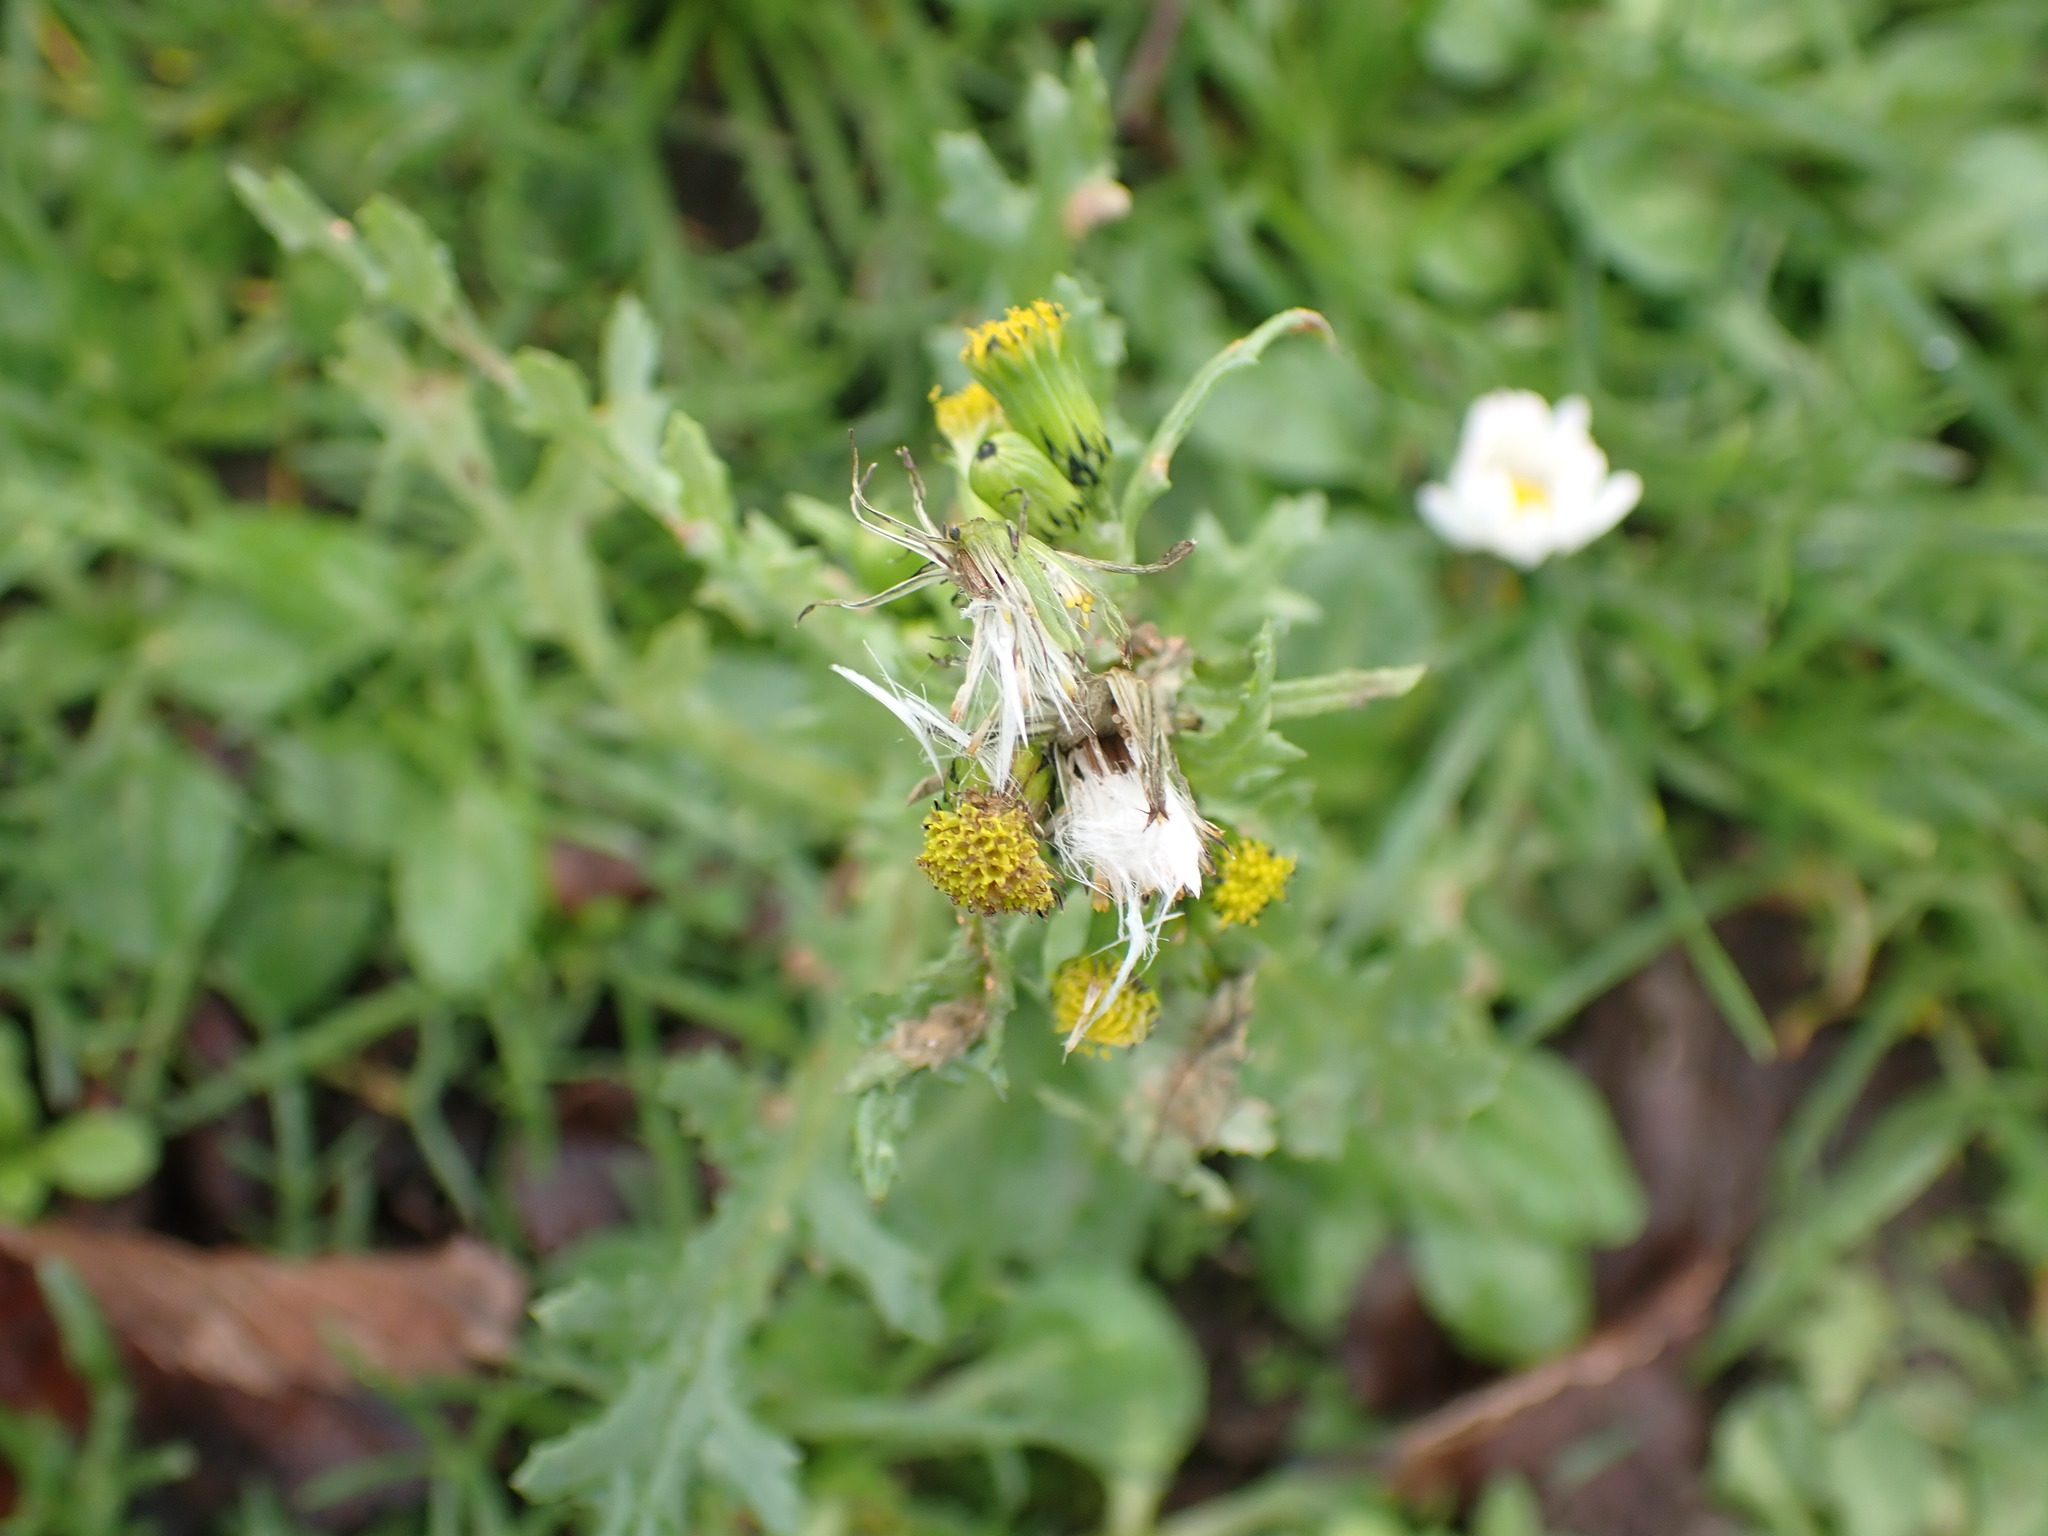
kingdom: Plantae
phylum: Tracheophyta
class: Magnoliopsida
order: Asterales
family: Asteraceae
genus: Senecio
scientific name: Senecio vulgaris
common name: Old-man-in-the-spring
